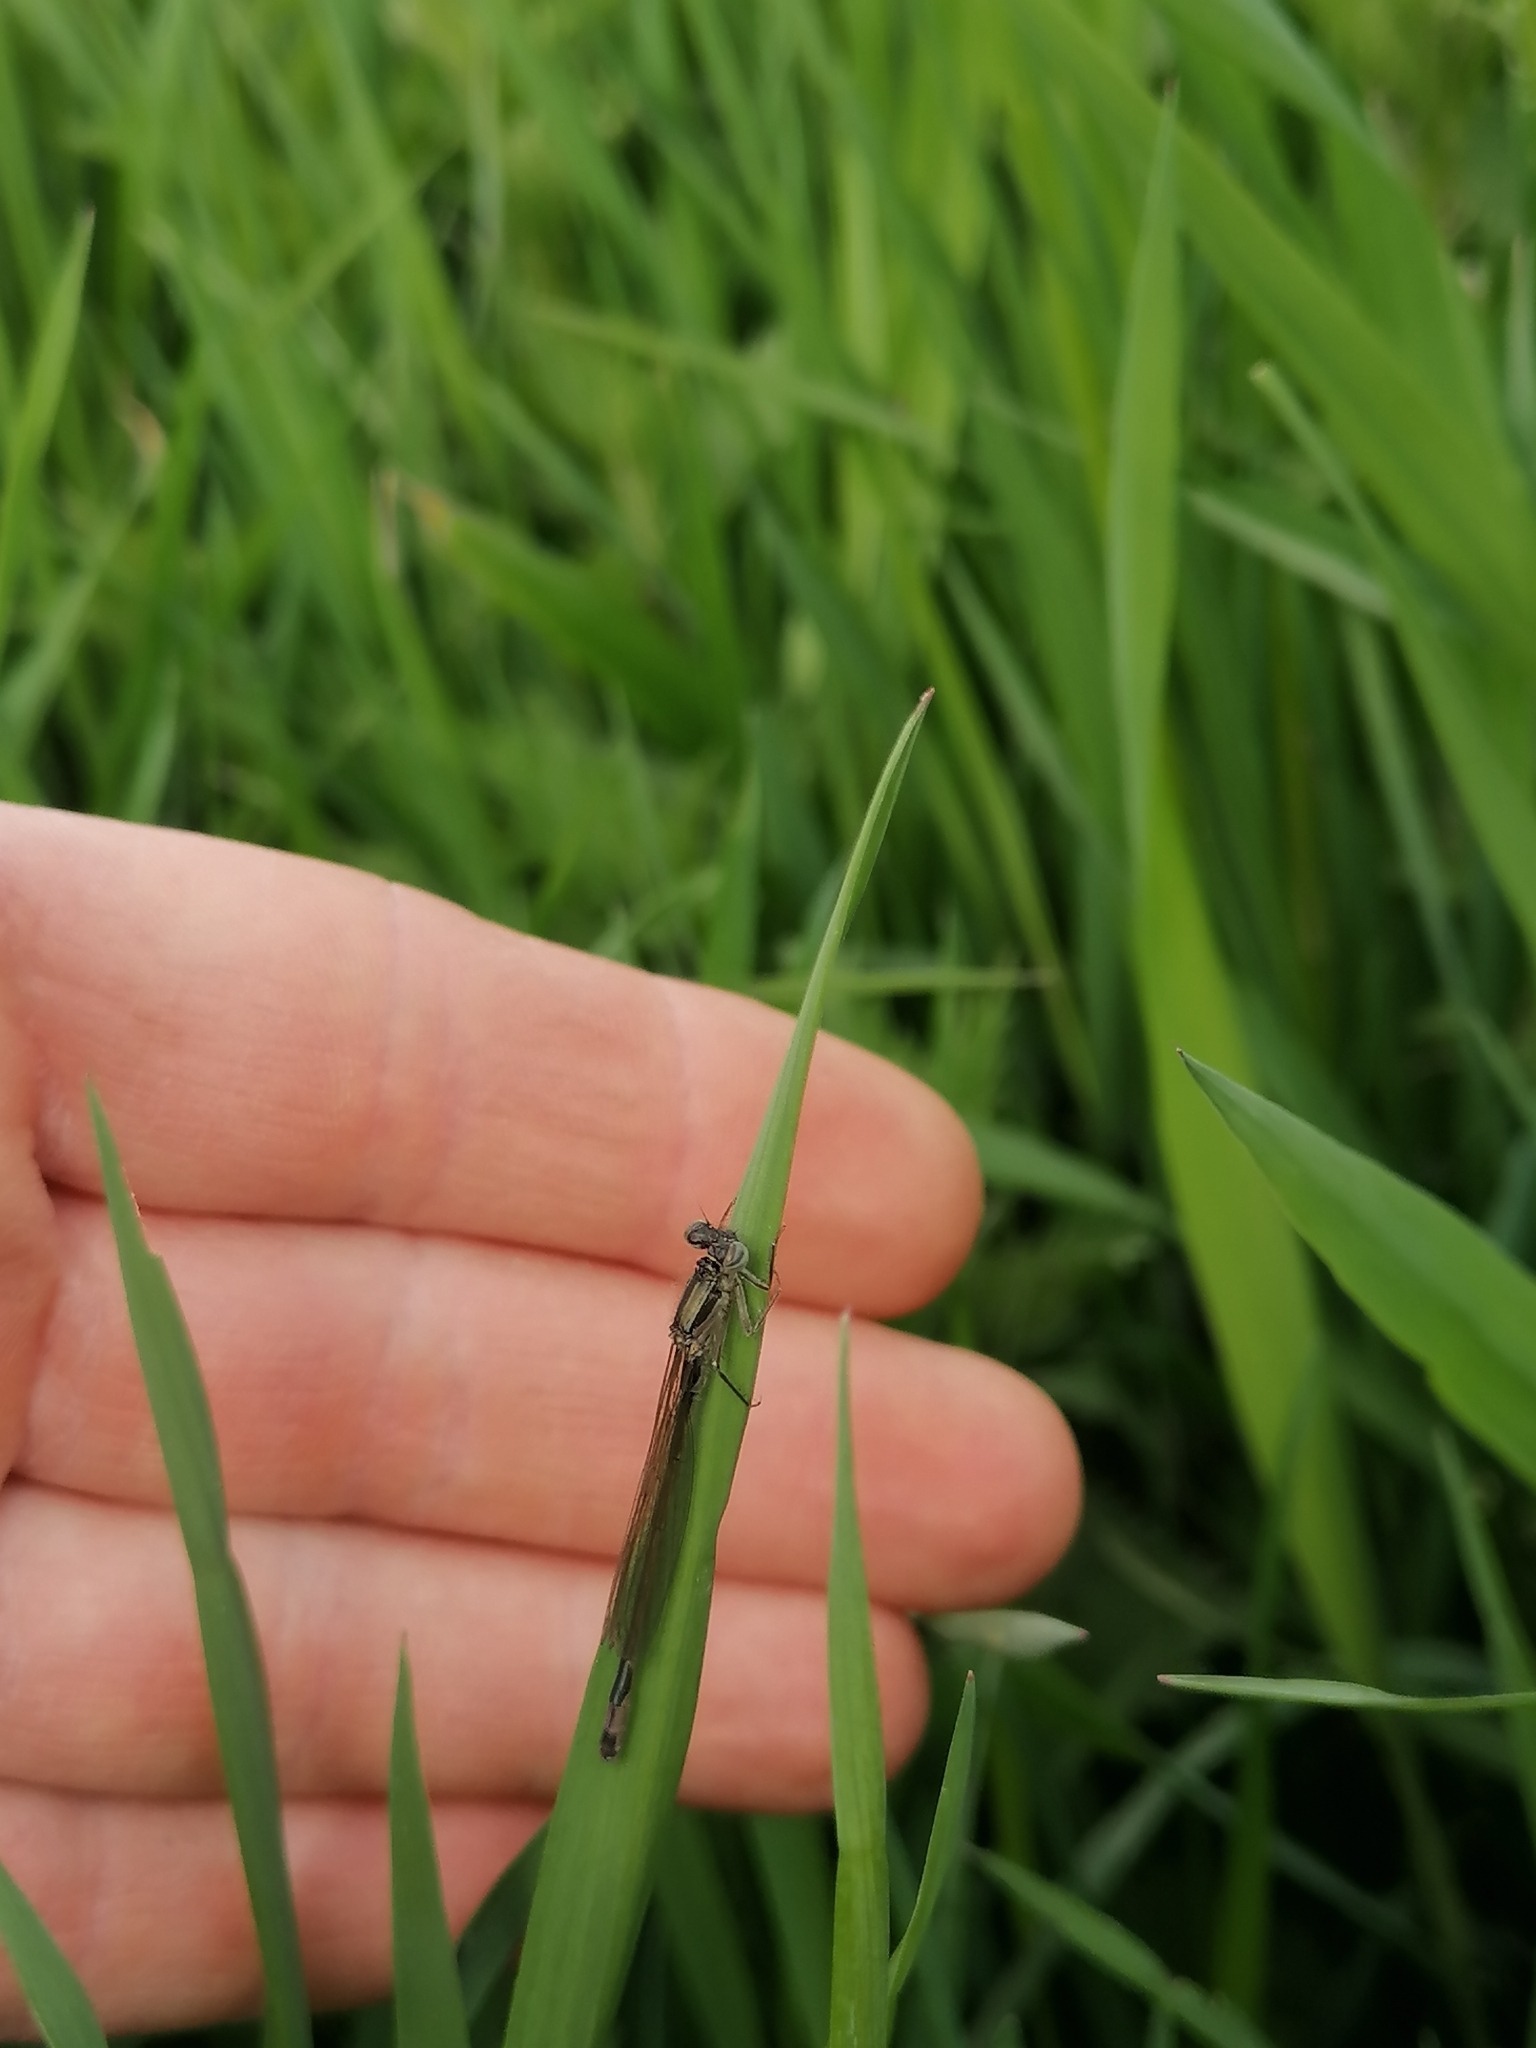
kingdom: Animalia
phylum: Arthropoda
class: Insecta
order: Odonata
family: Coenagrionidae
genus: Ischnura
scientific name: Ischnura elegans
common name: Blue-tailed damselfly
